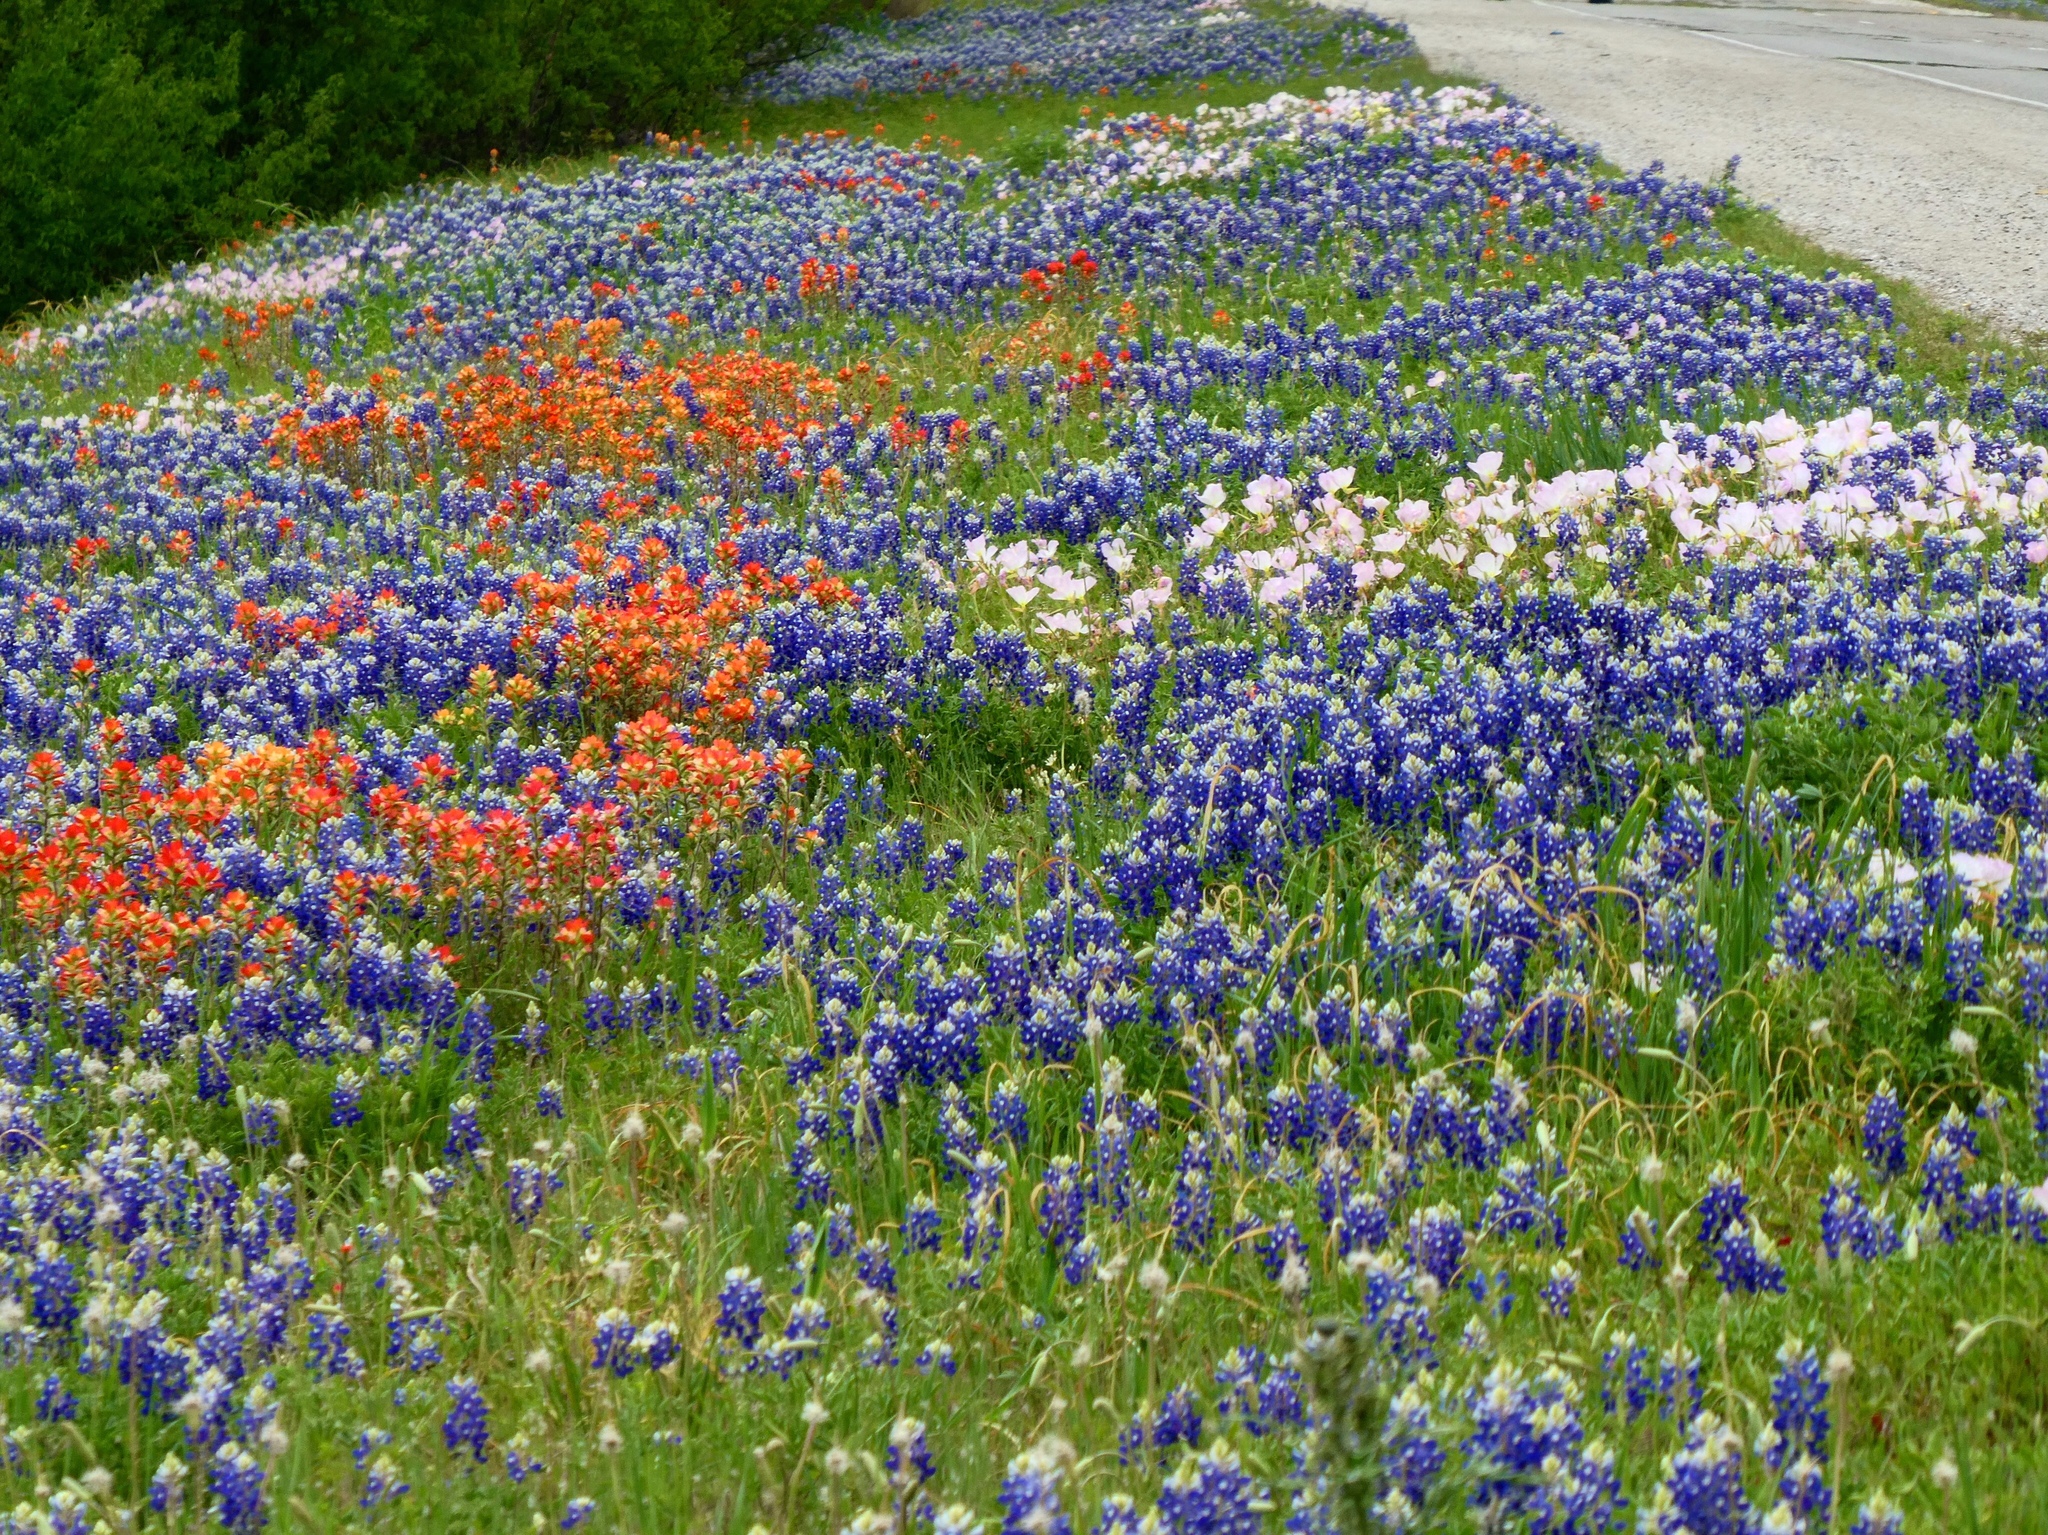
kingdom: Plantae
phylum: Tracheophyta
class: Magnoliopsida
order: Fabales
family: Fabaceae
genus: Lupinus
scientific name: Lupinus texensis
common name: Texas bluebonnet
